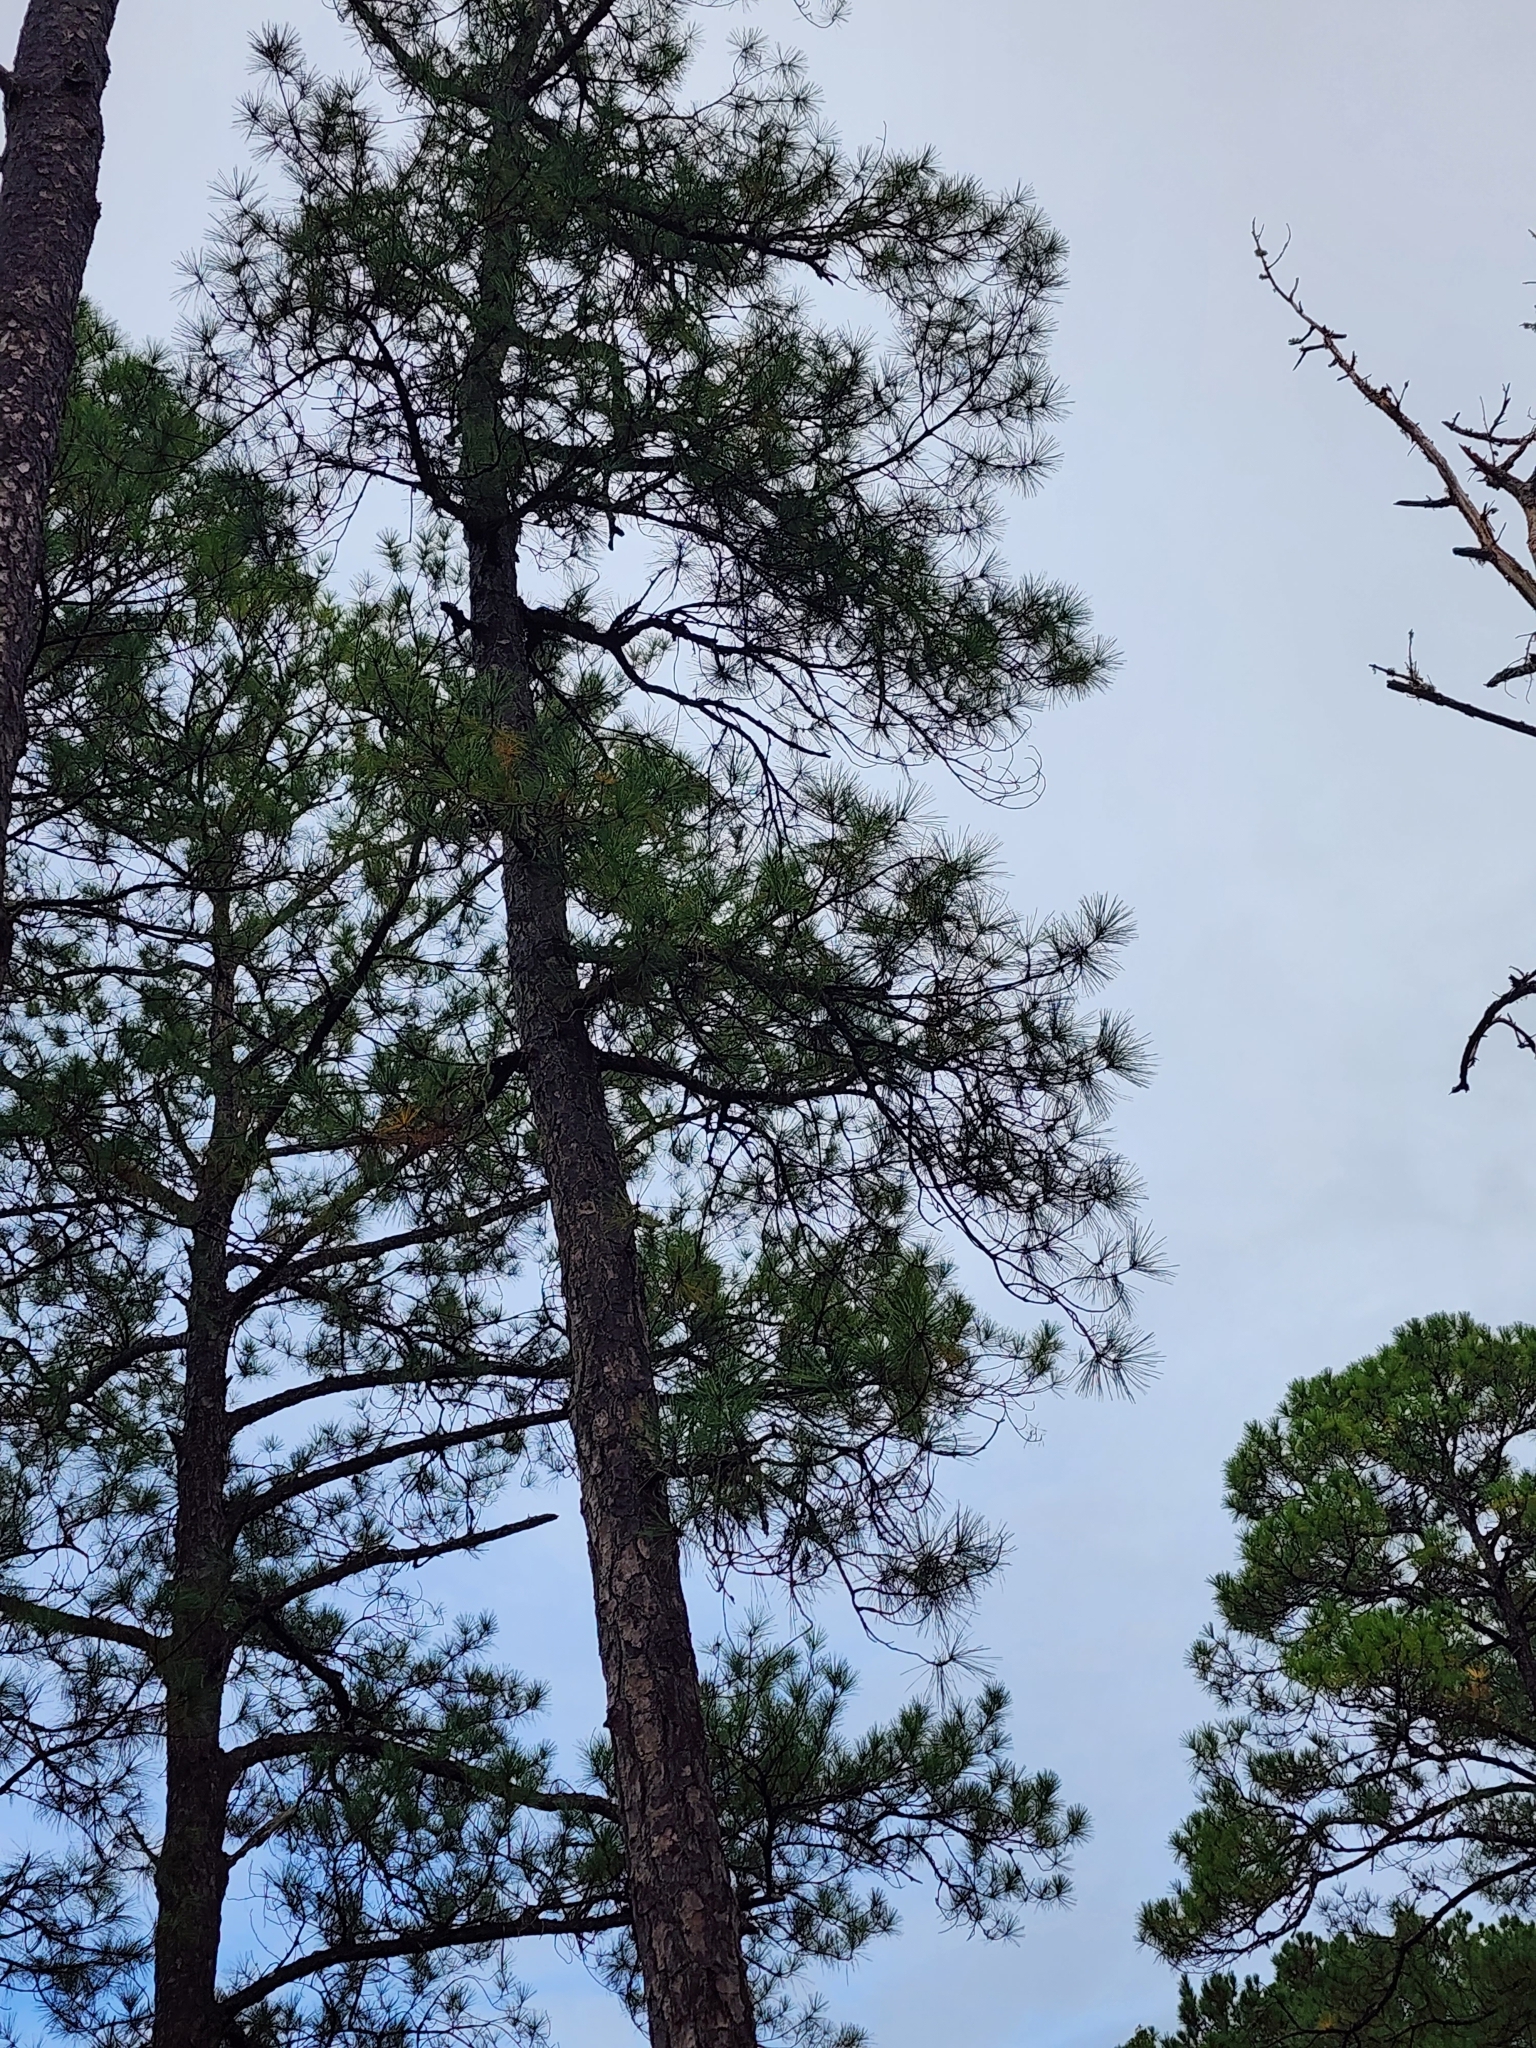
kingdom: Plantae
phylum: Tracheophyta
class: Pinopsida
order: Pinales
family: Pinaceae
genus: Pinus
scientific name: Pinus serotina
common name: Marsh pine
